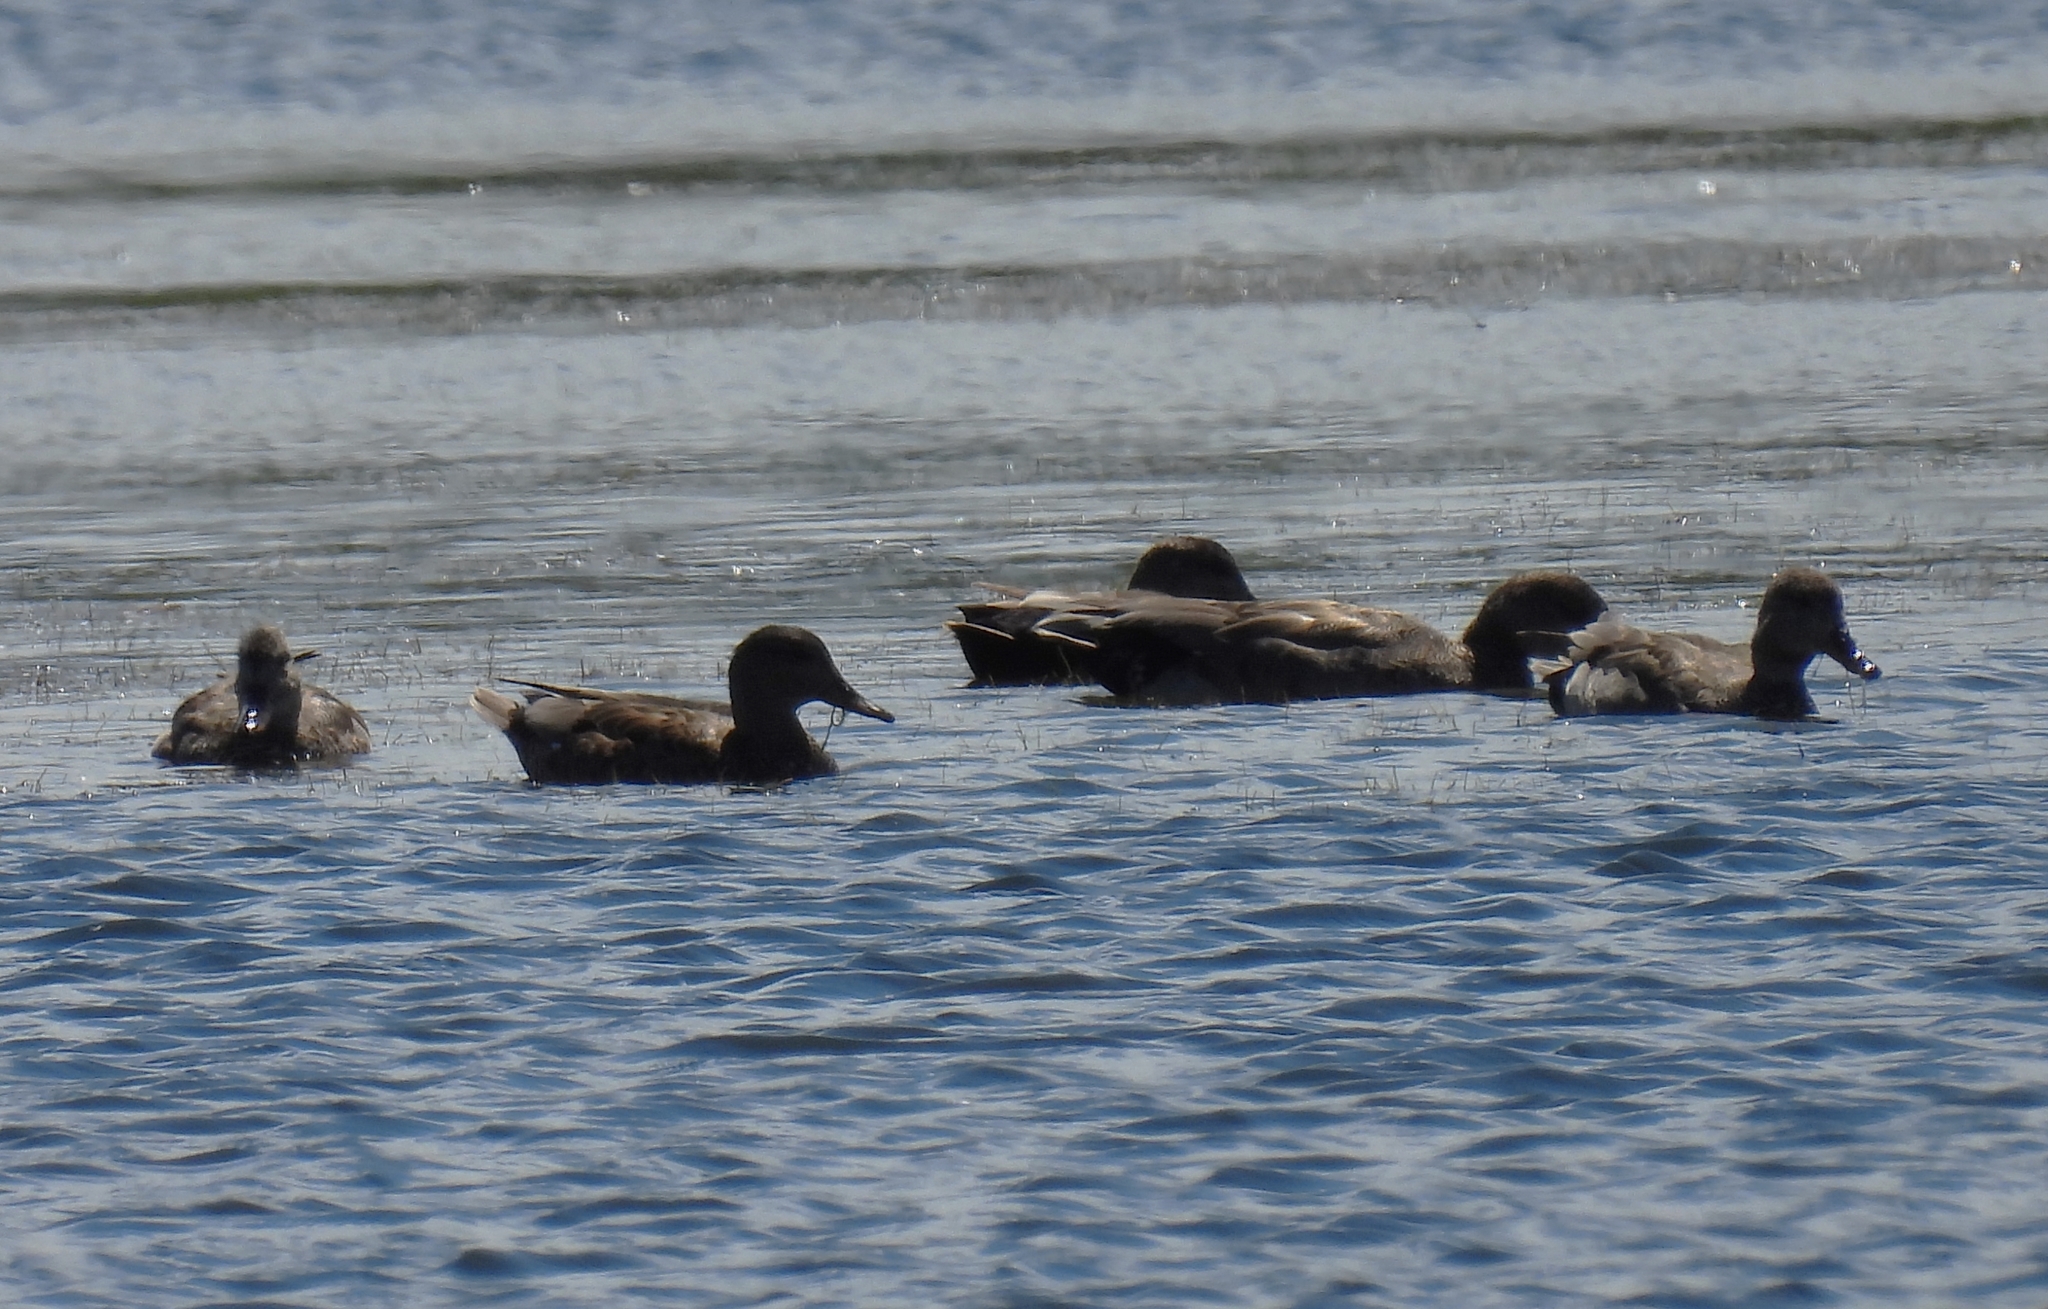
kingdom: Animalia
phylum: Chordata
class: Aves
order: Anseriformes
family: Anatidae
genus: Mareca
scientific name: Mareca strepera
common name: Gadwall
